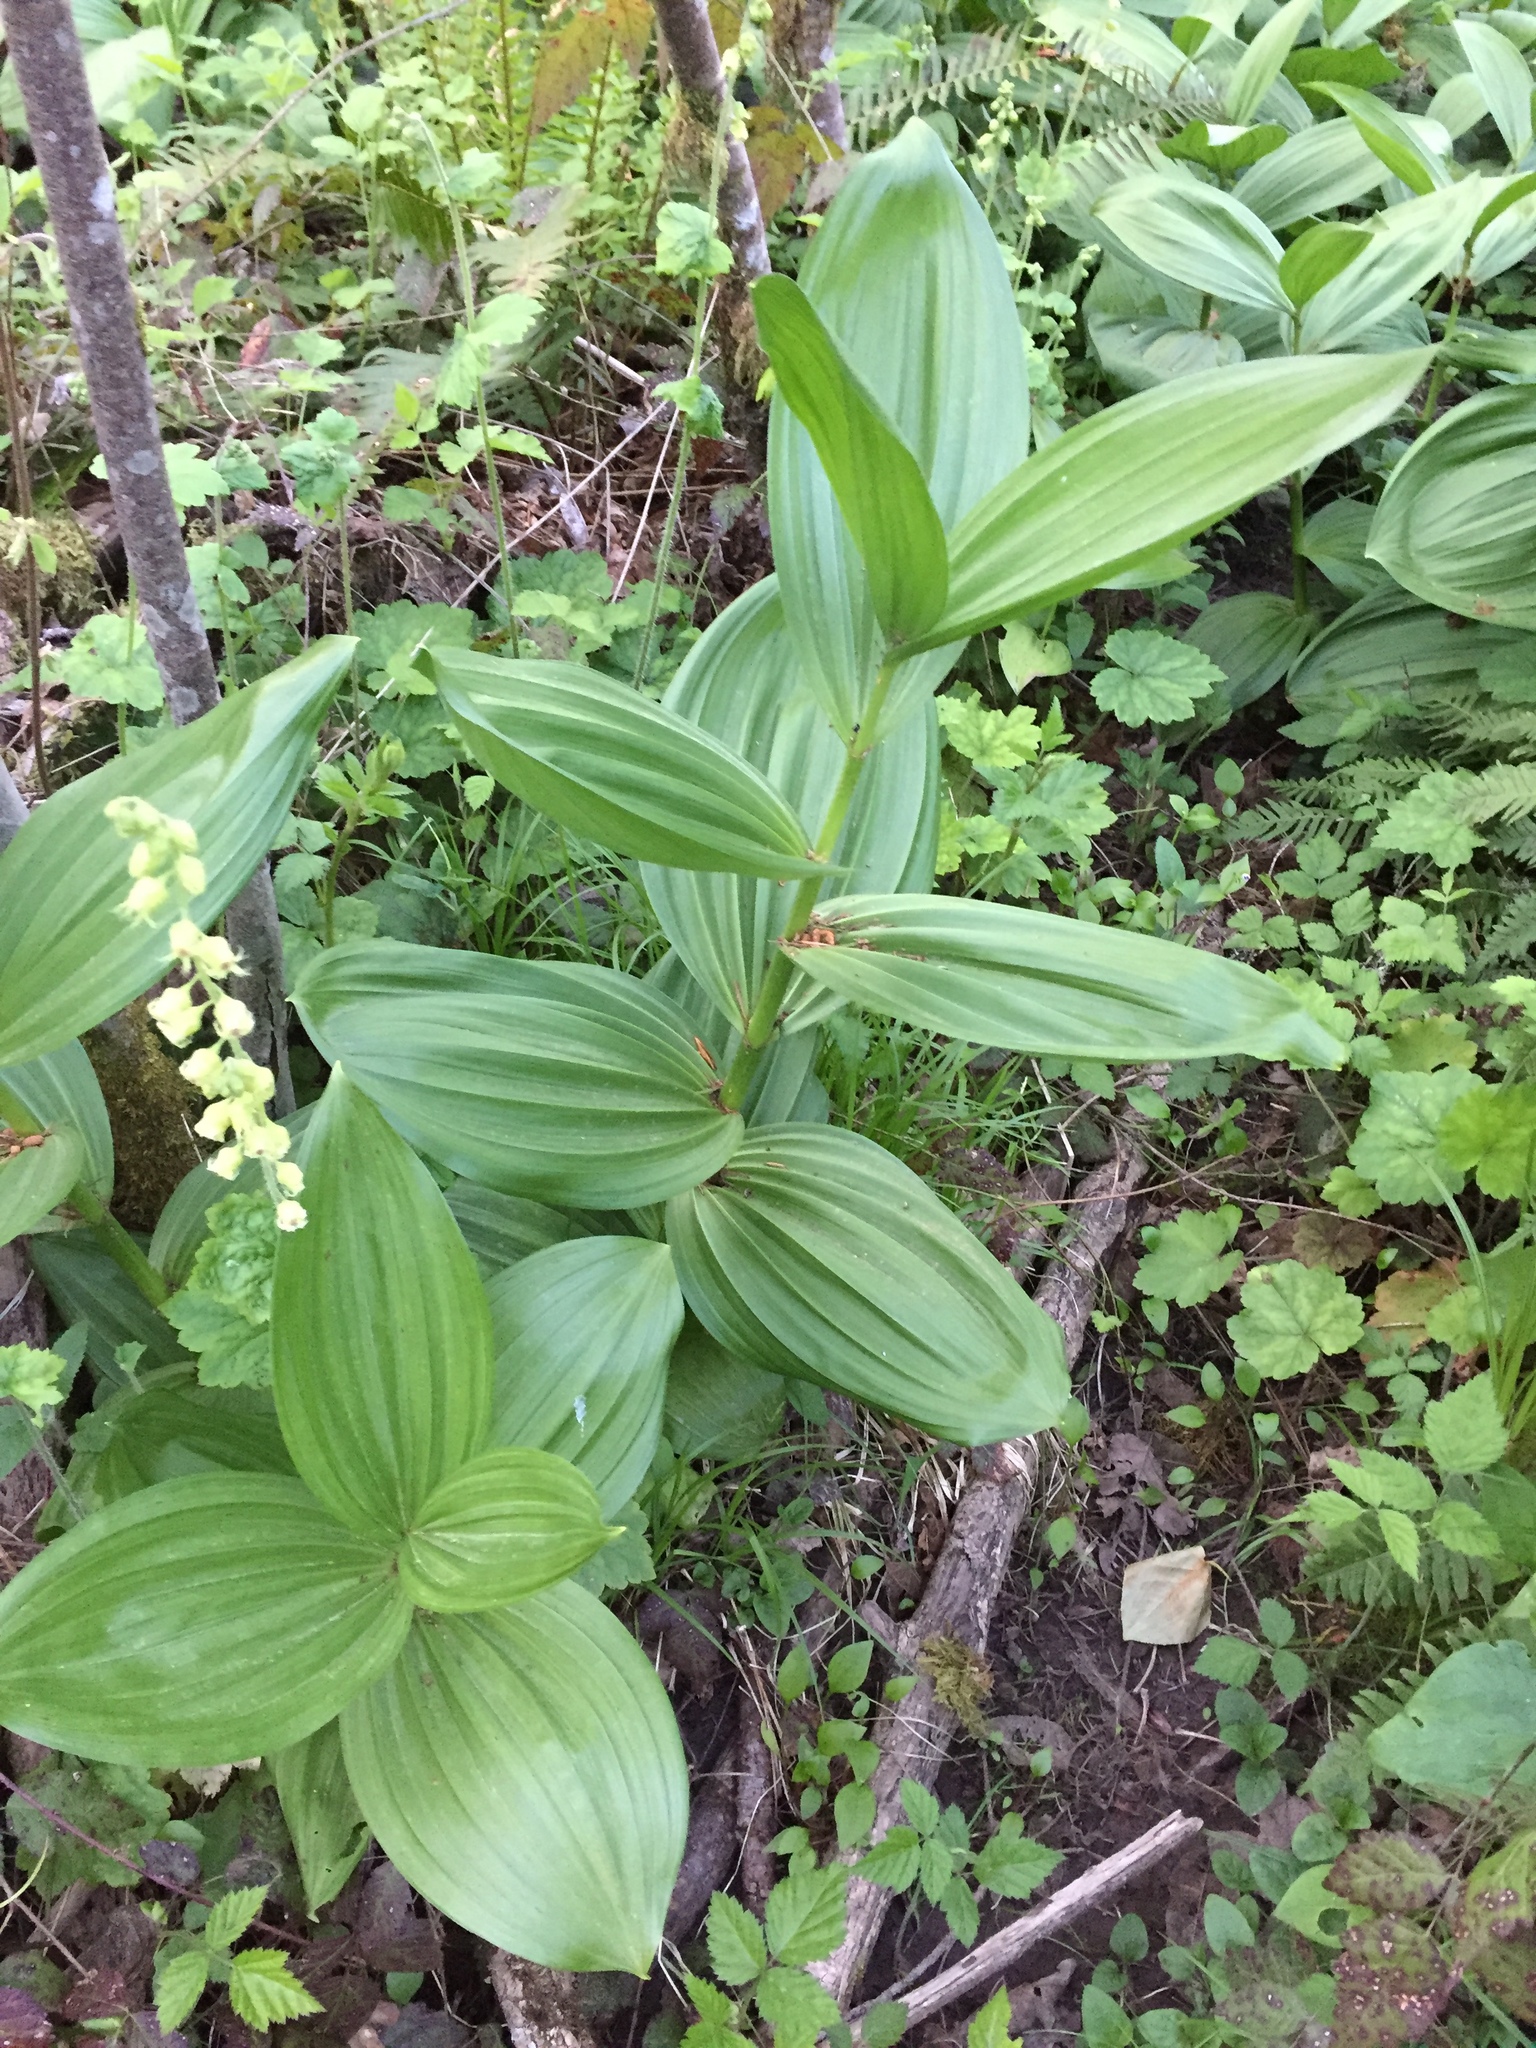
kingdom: Plantae
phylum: Tracheophyta
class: Liliopsida
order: Liliales
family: Melanthiaceae
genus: Veratrum
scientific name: Veratrum californicum
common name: California veratrum
